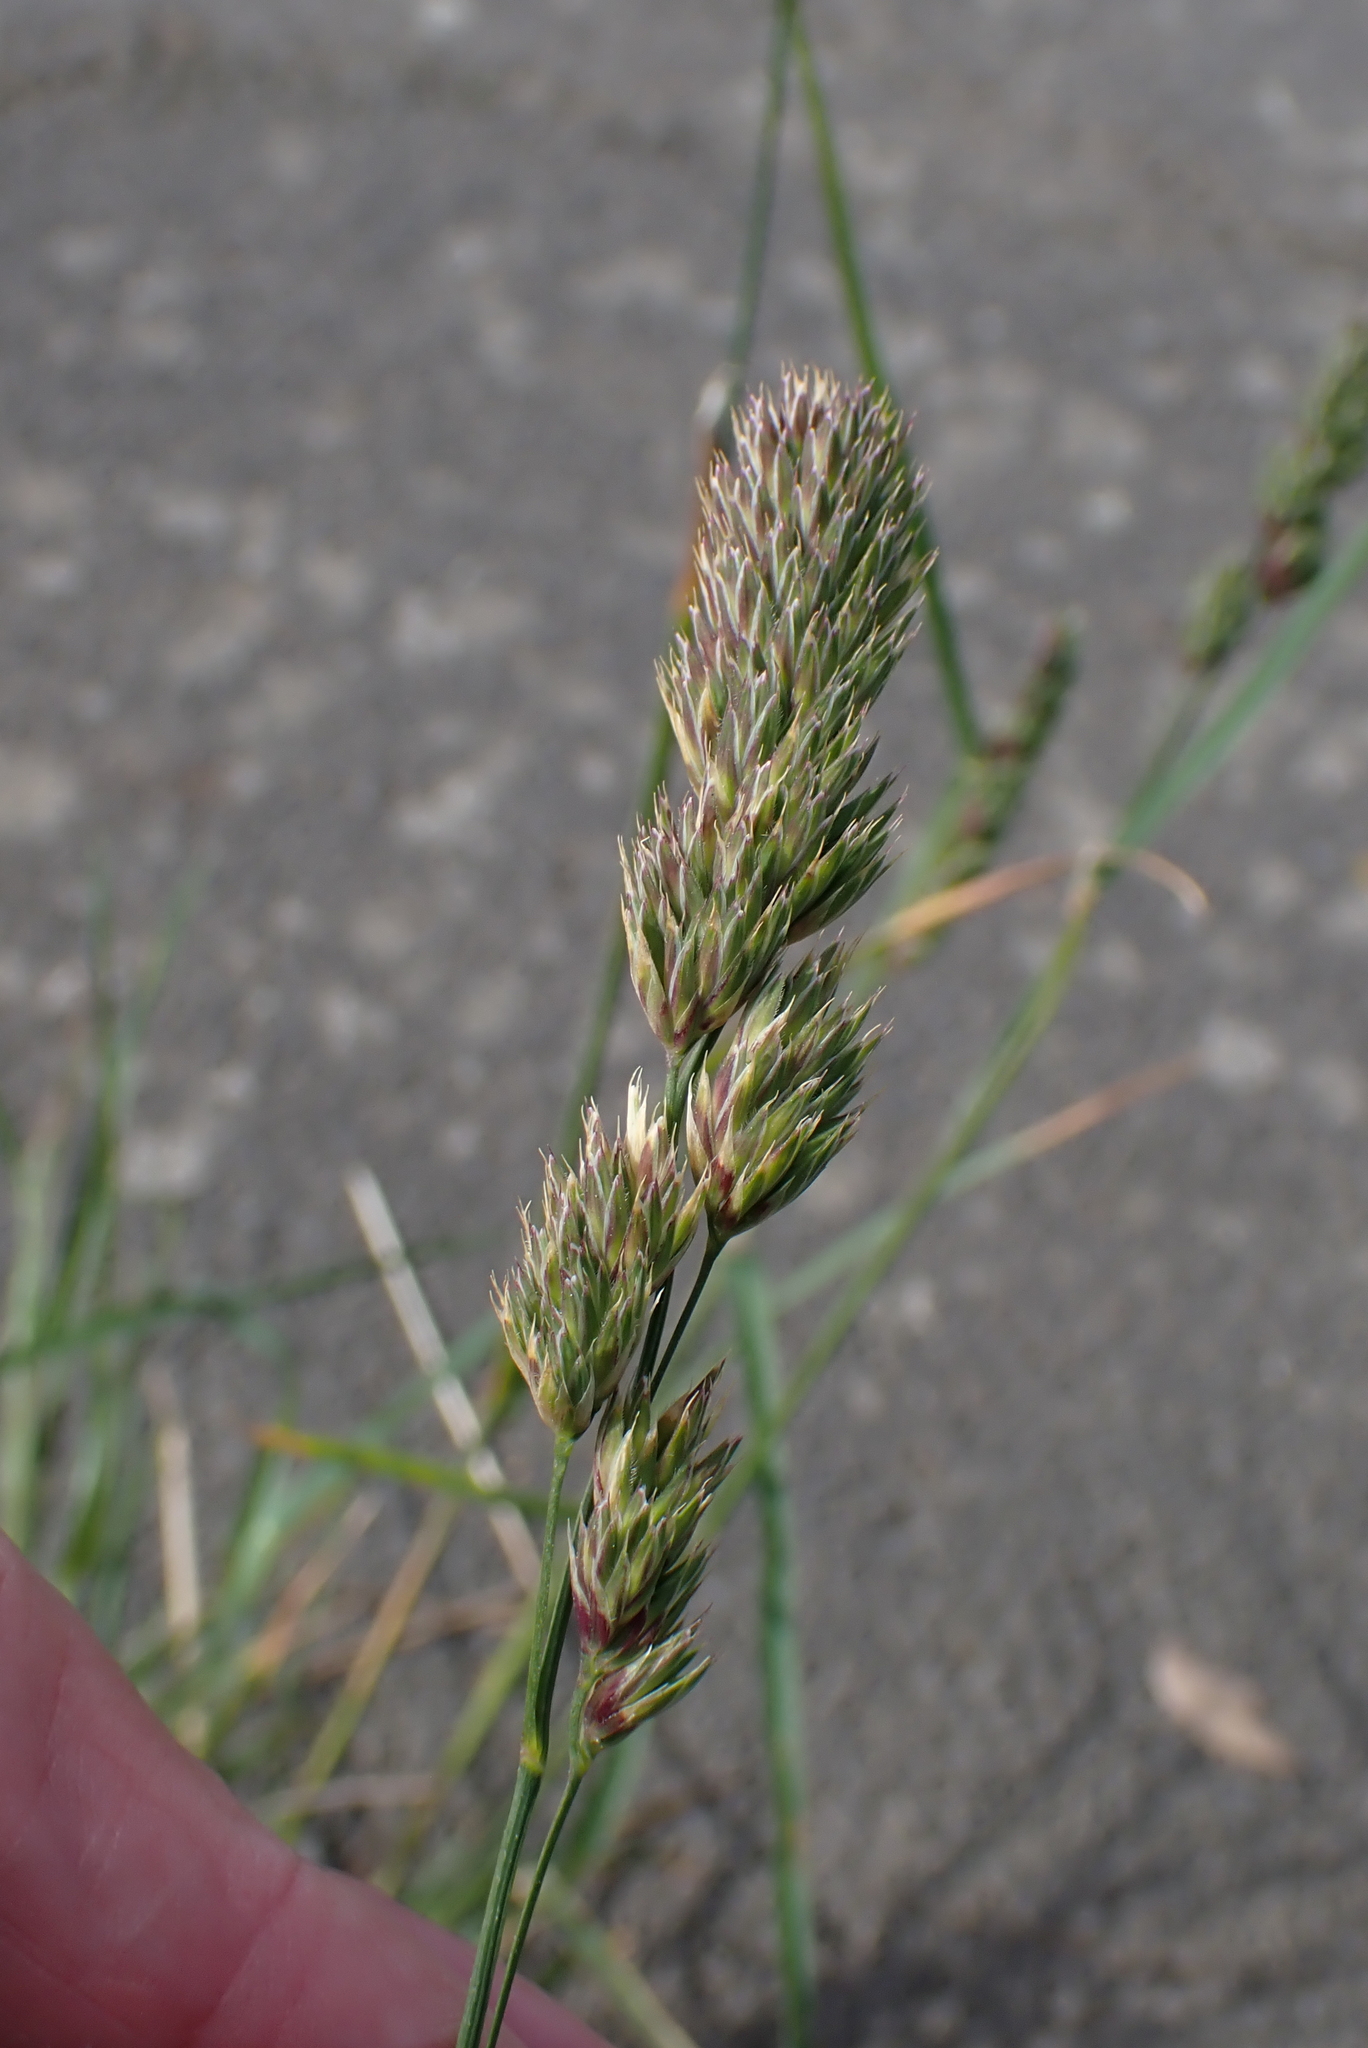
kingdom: Plantae
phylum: Tracheophyta
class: Liliopsida
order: Poales
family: Poaceae
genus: Dactylis
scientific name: Dactylis glomerata
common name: Orchardgrass
